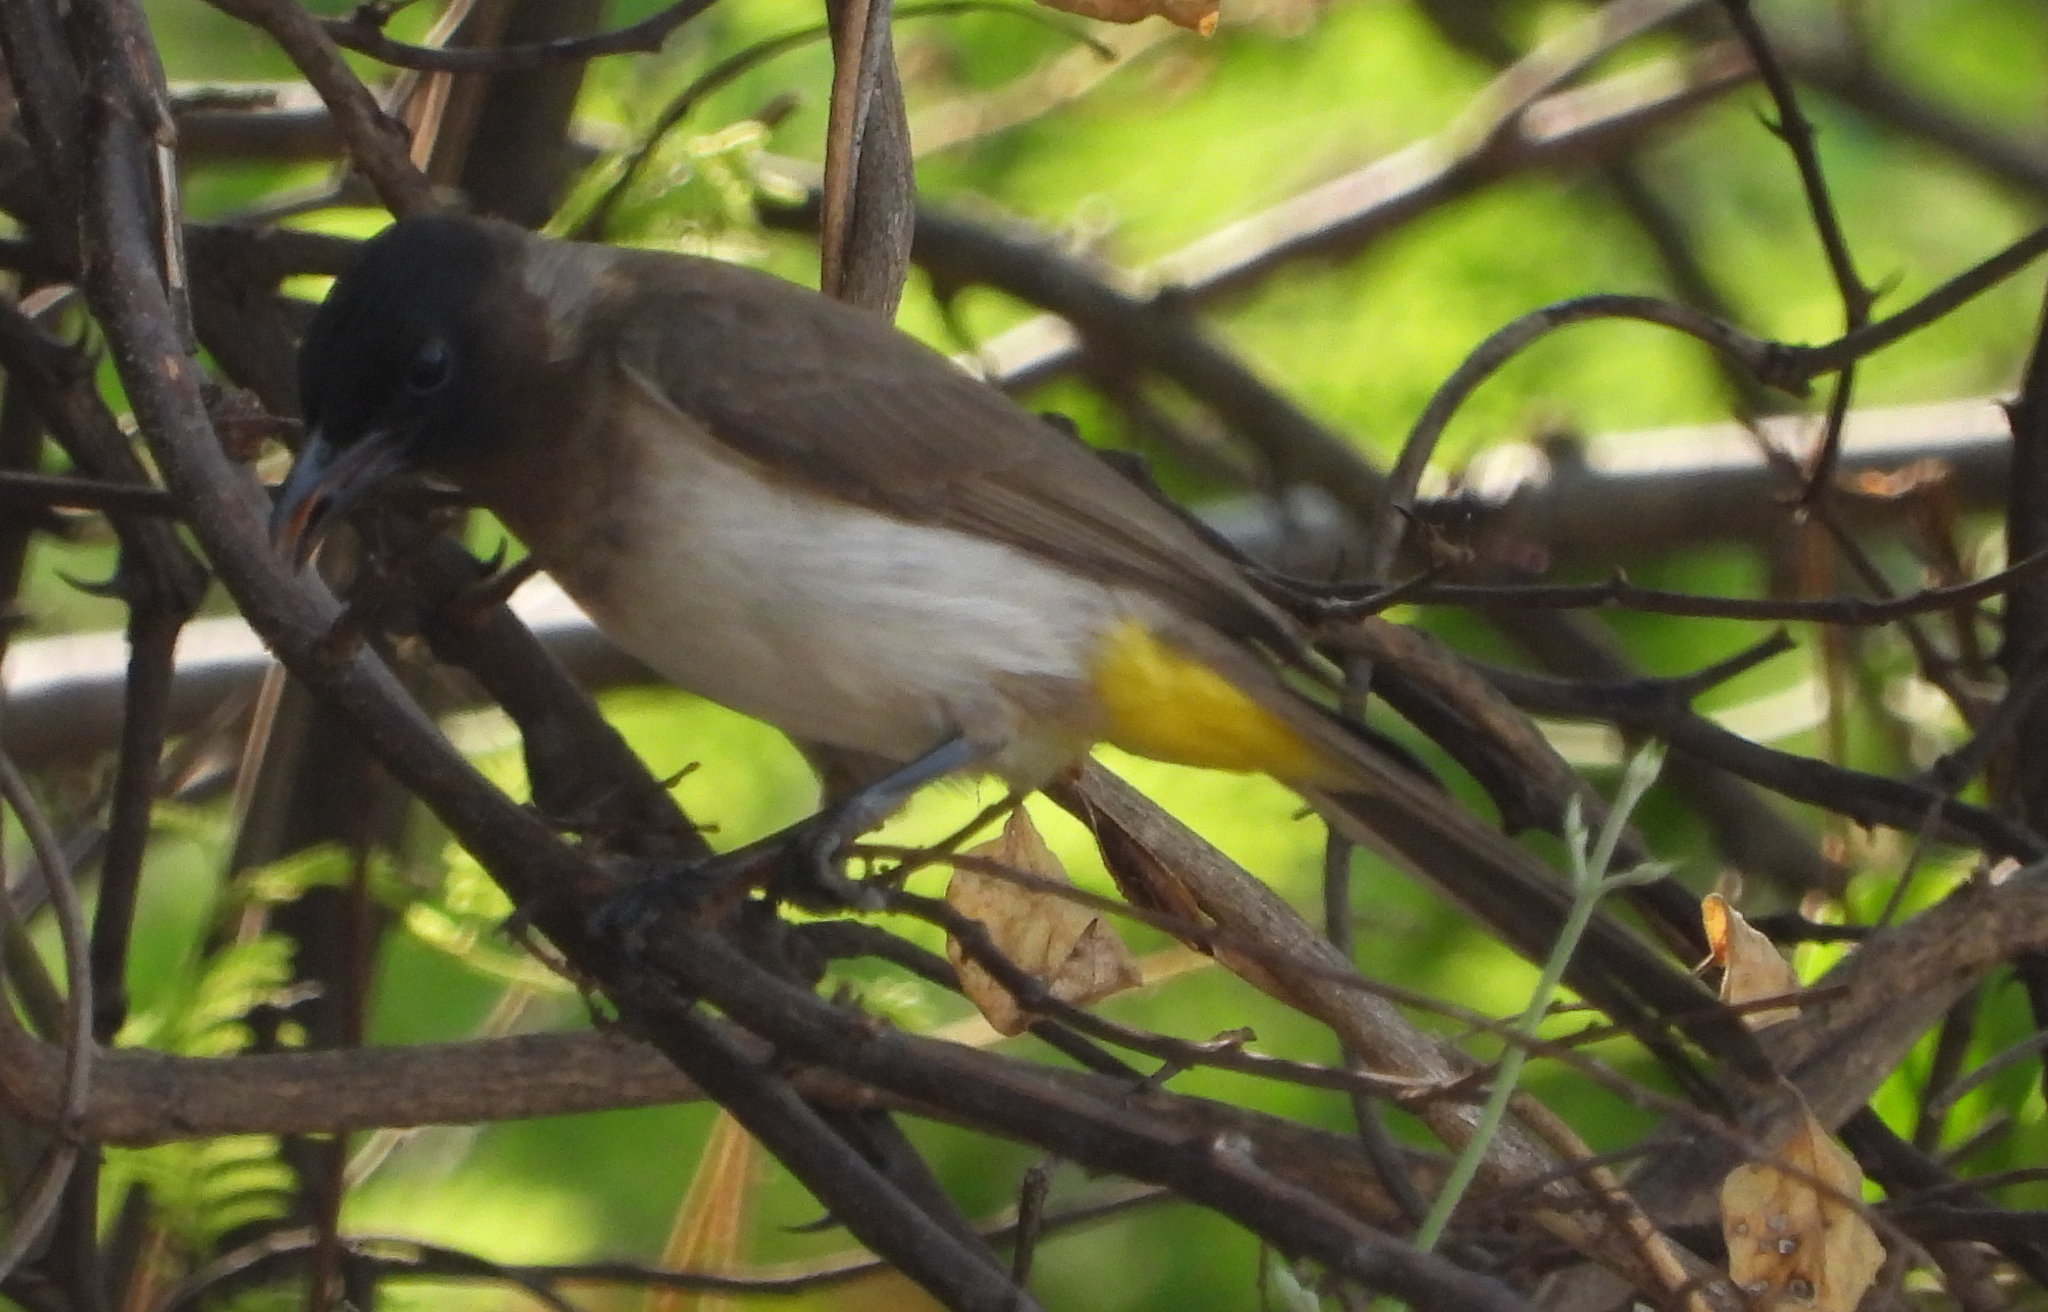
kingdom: Animalia
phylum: Chordata
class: Aves
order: Passeriformes
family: Pycnonotidae
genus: Pycnonotus
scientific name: Pycnonotus barbatus
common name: Common bulbul
